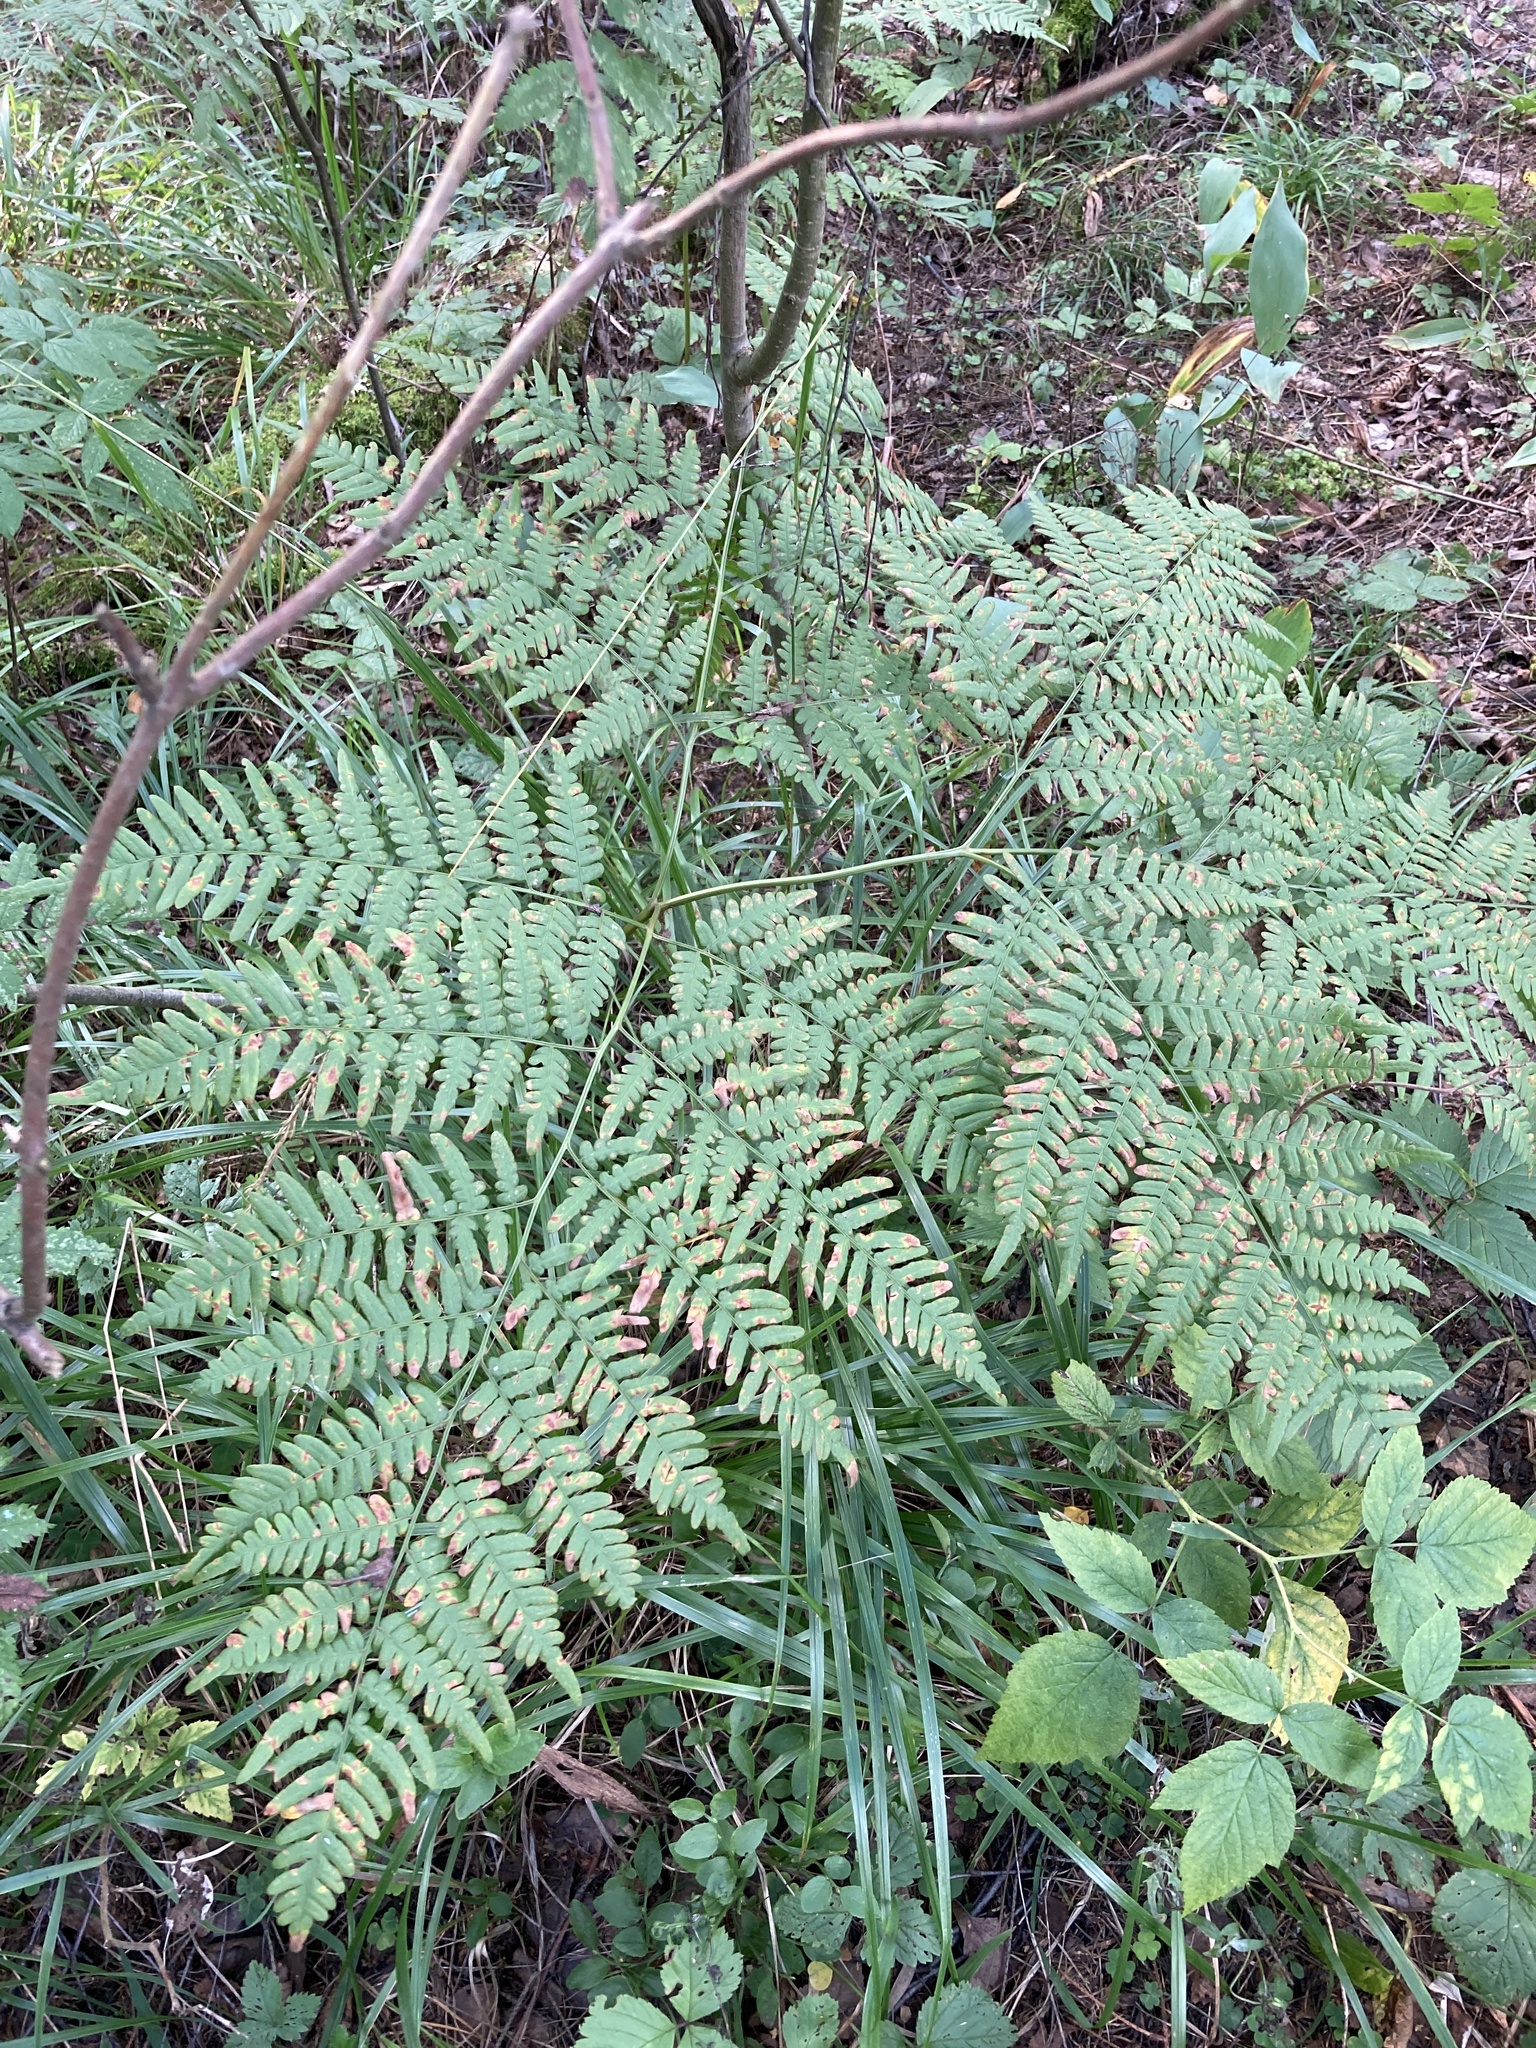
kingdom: Plantae
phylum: Tracheophyta
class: Polypodiopsida
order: Polypodiales
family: Dennstaedtiaceae
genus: Pteridium
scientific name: Pteridium aquilinum
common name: Bracken
